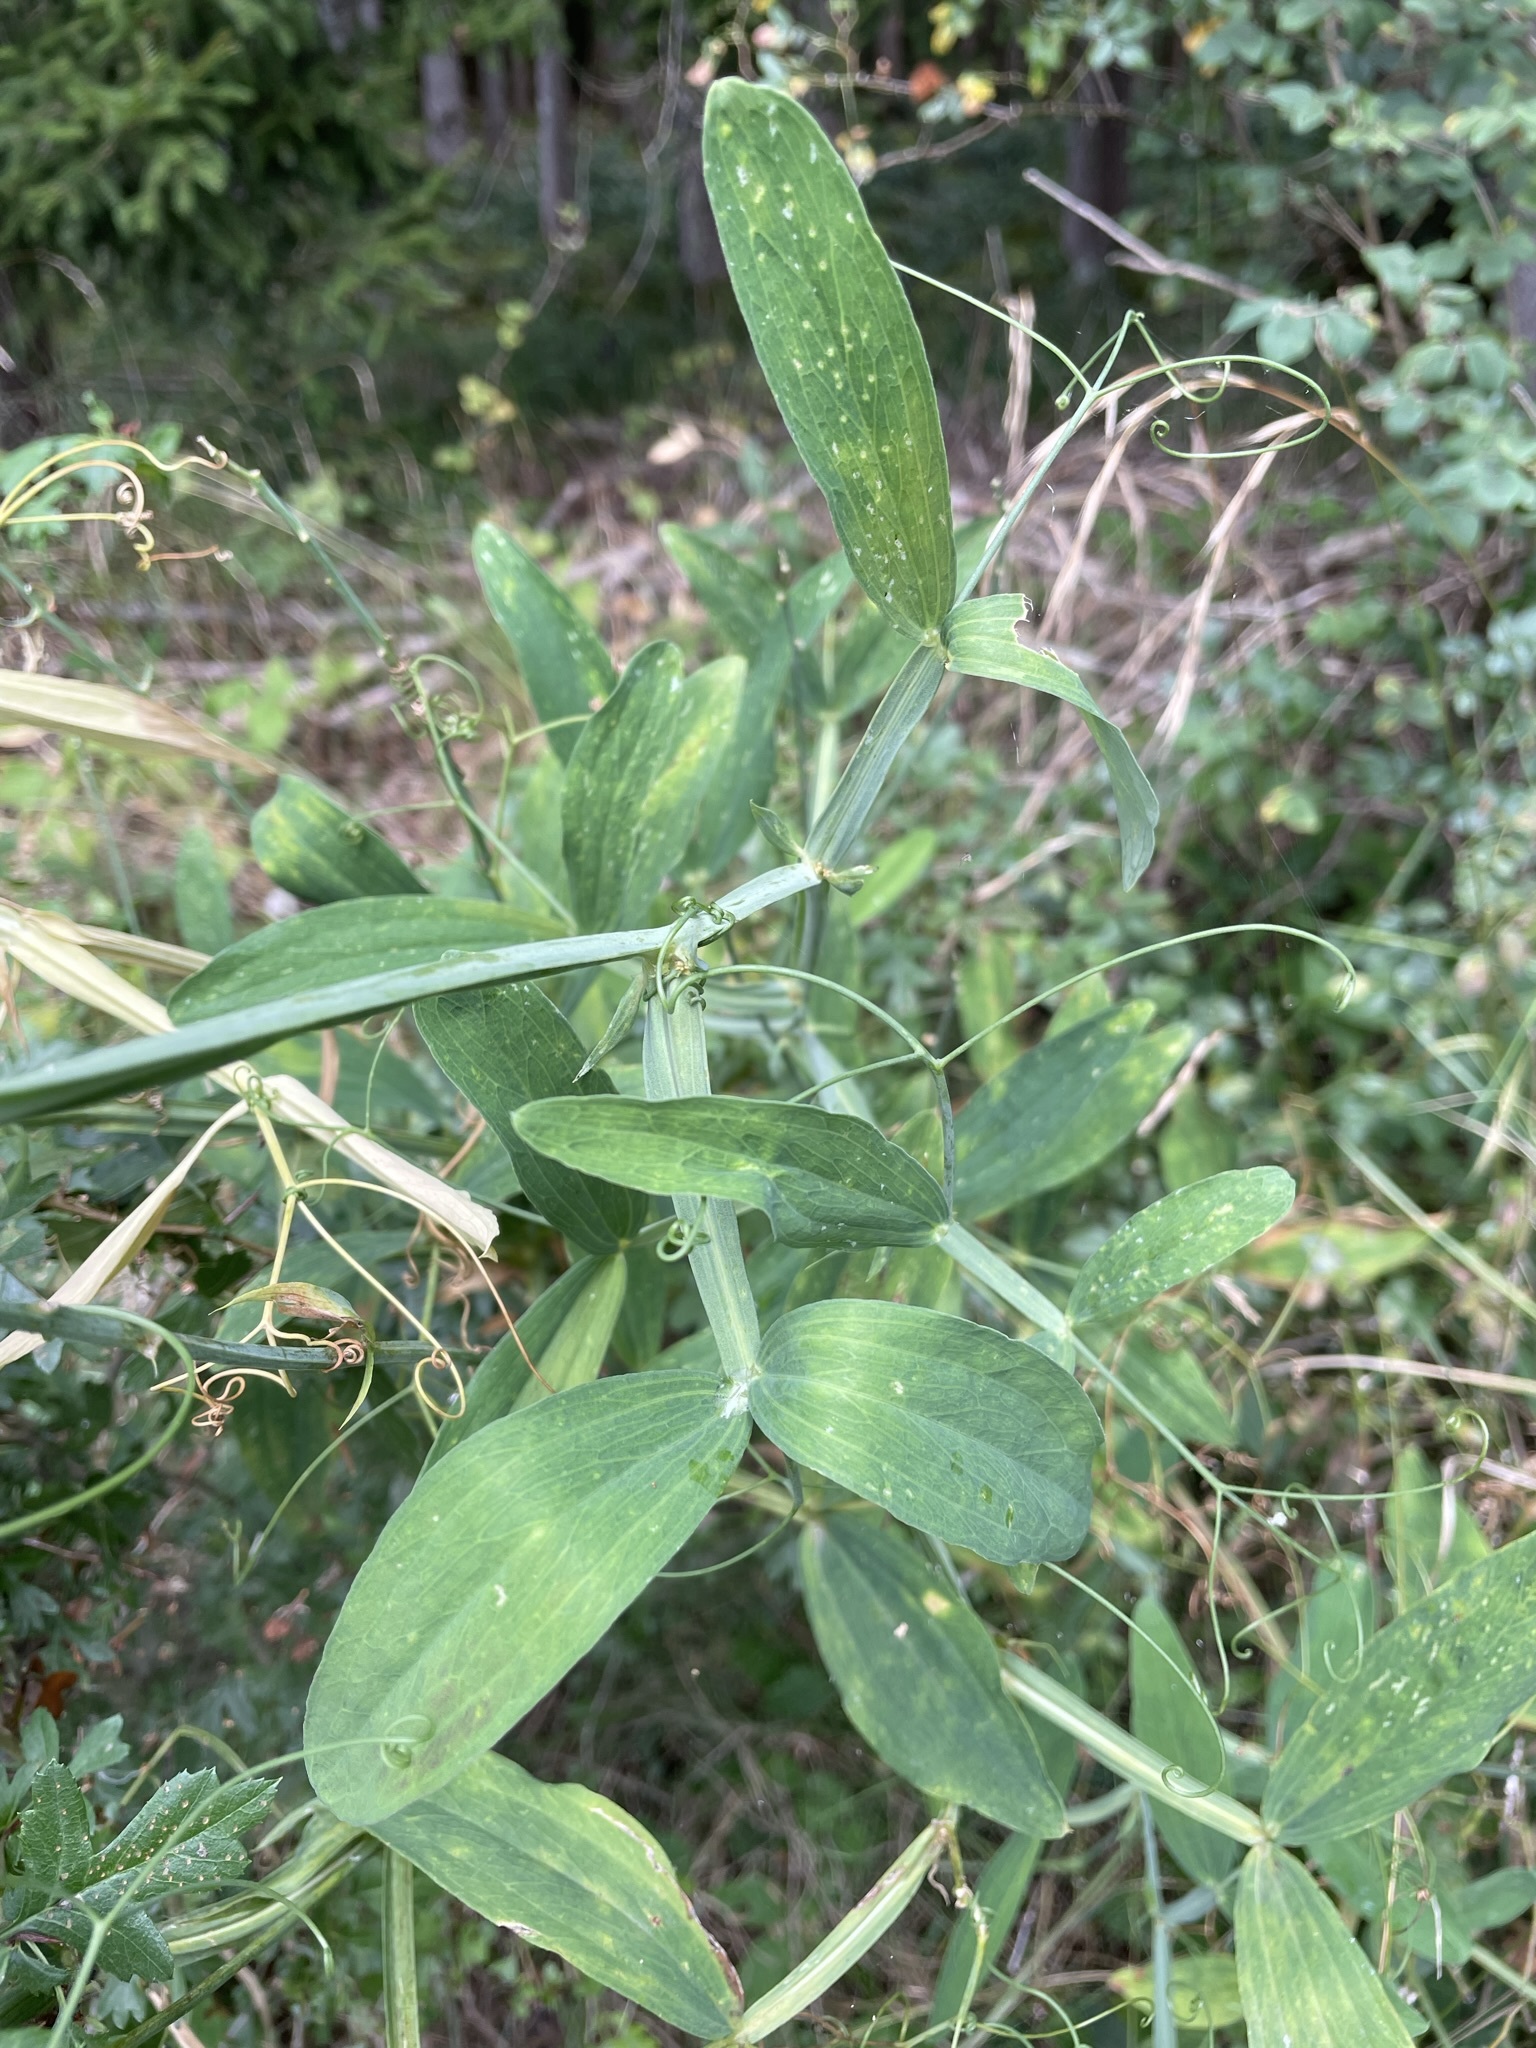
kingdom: Plantae
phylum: Tracheophyta
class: Magnoliopsida
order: Fabales
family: Fabaceae
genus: Lathyrus
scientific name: Lathyrus latifolius
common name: Perennial pea
